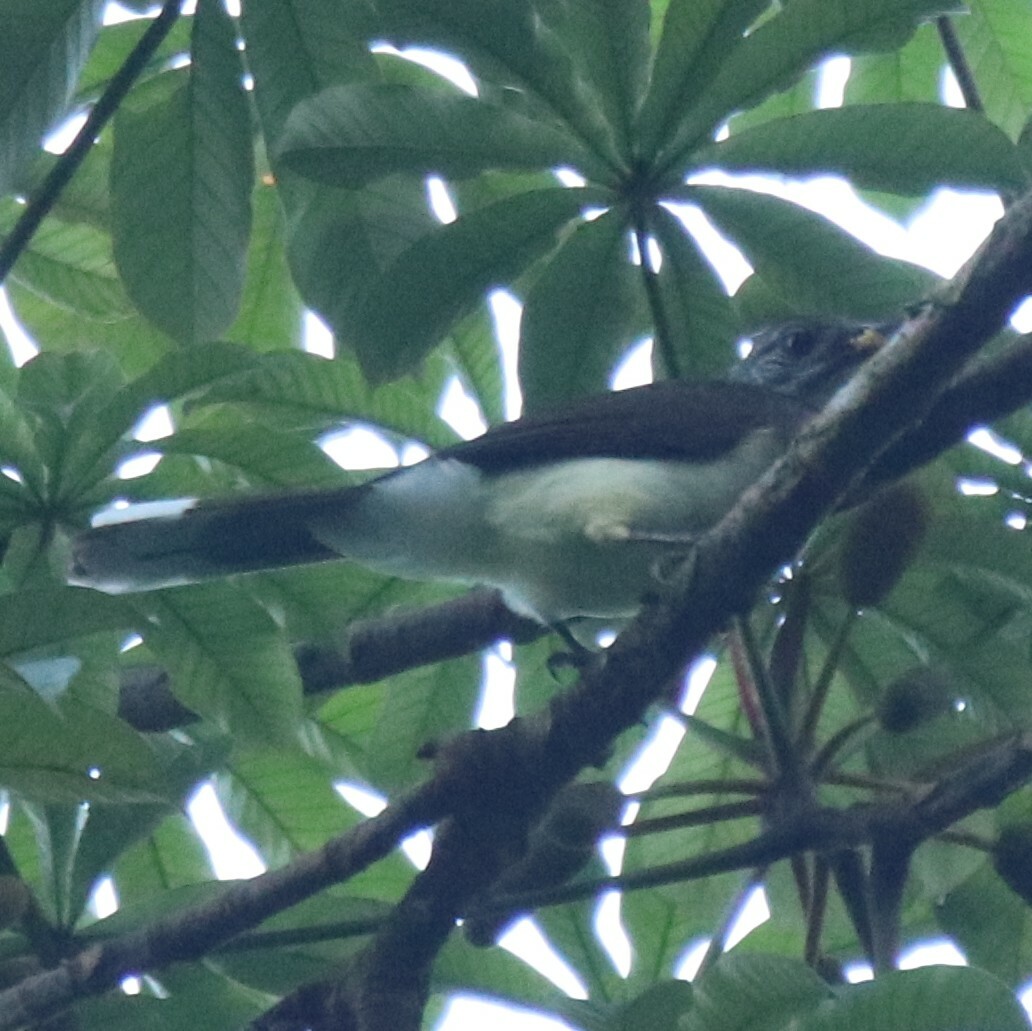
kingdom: Animalia
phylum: Chordata
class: Aves
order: Passeriformes
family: Pycnonotidae
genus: Thescelocichla
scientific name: Thescelocichla leucopleura
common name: Swamp palm bulbul
